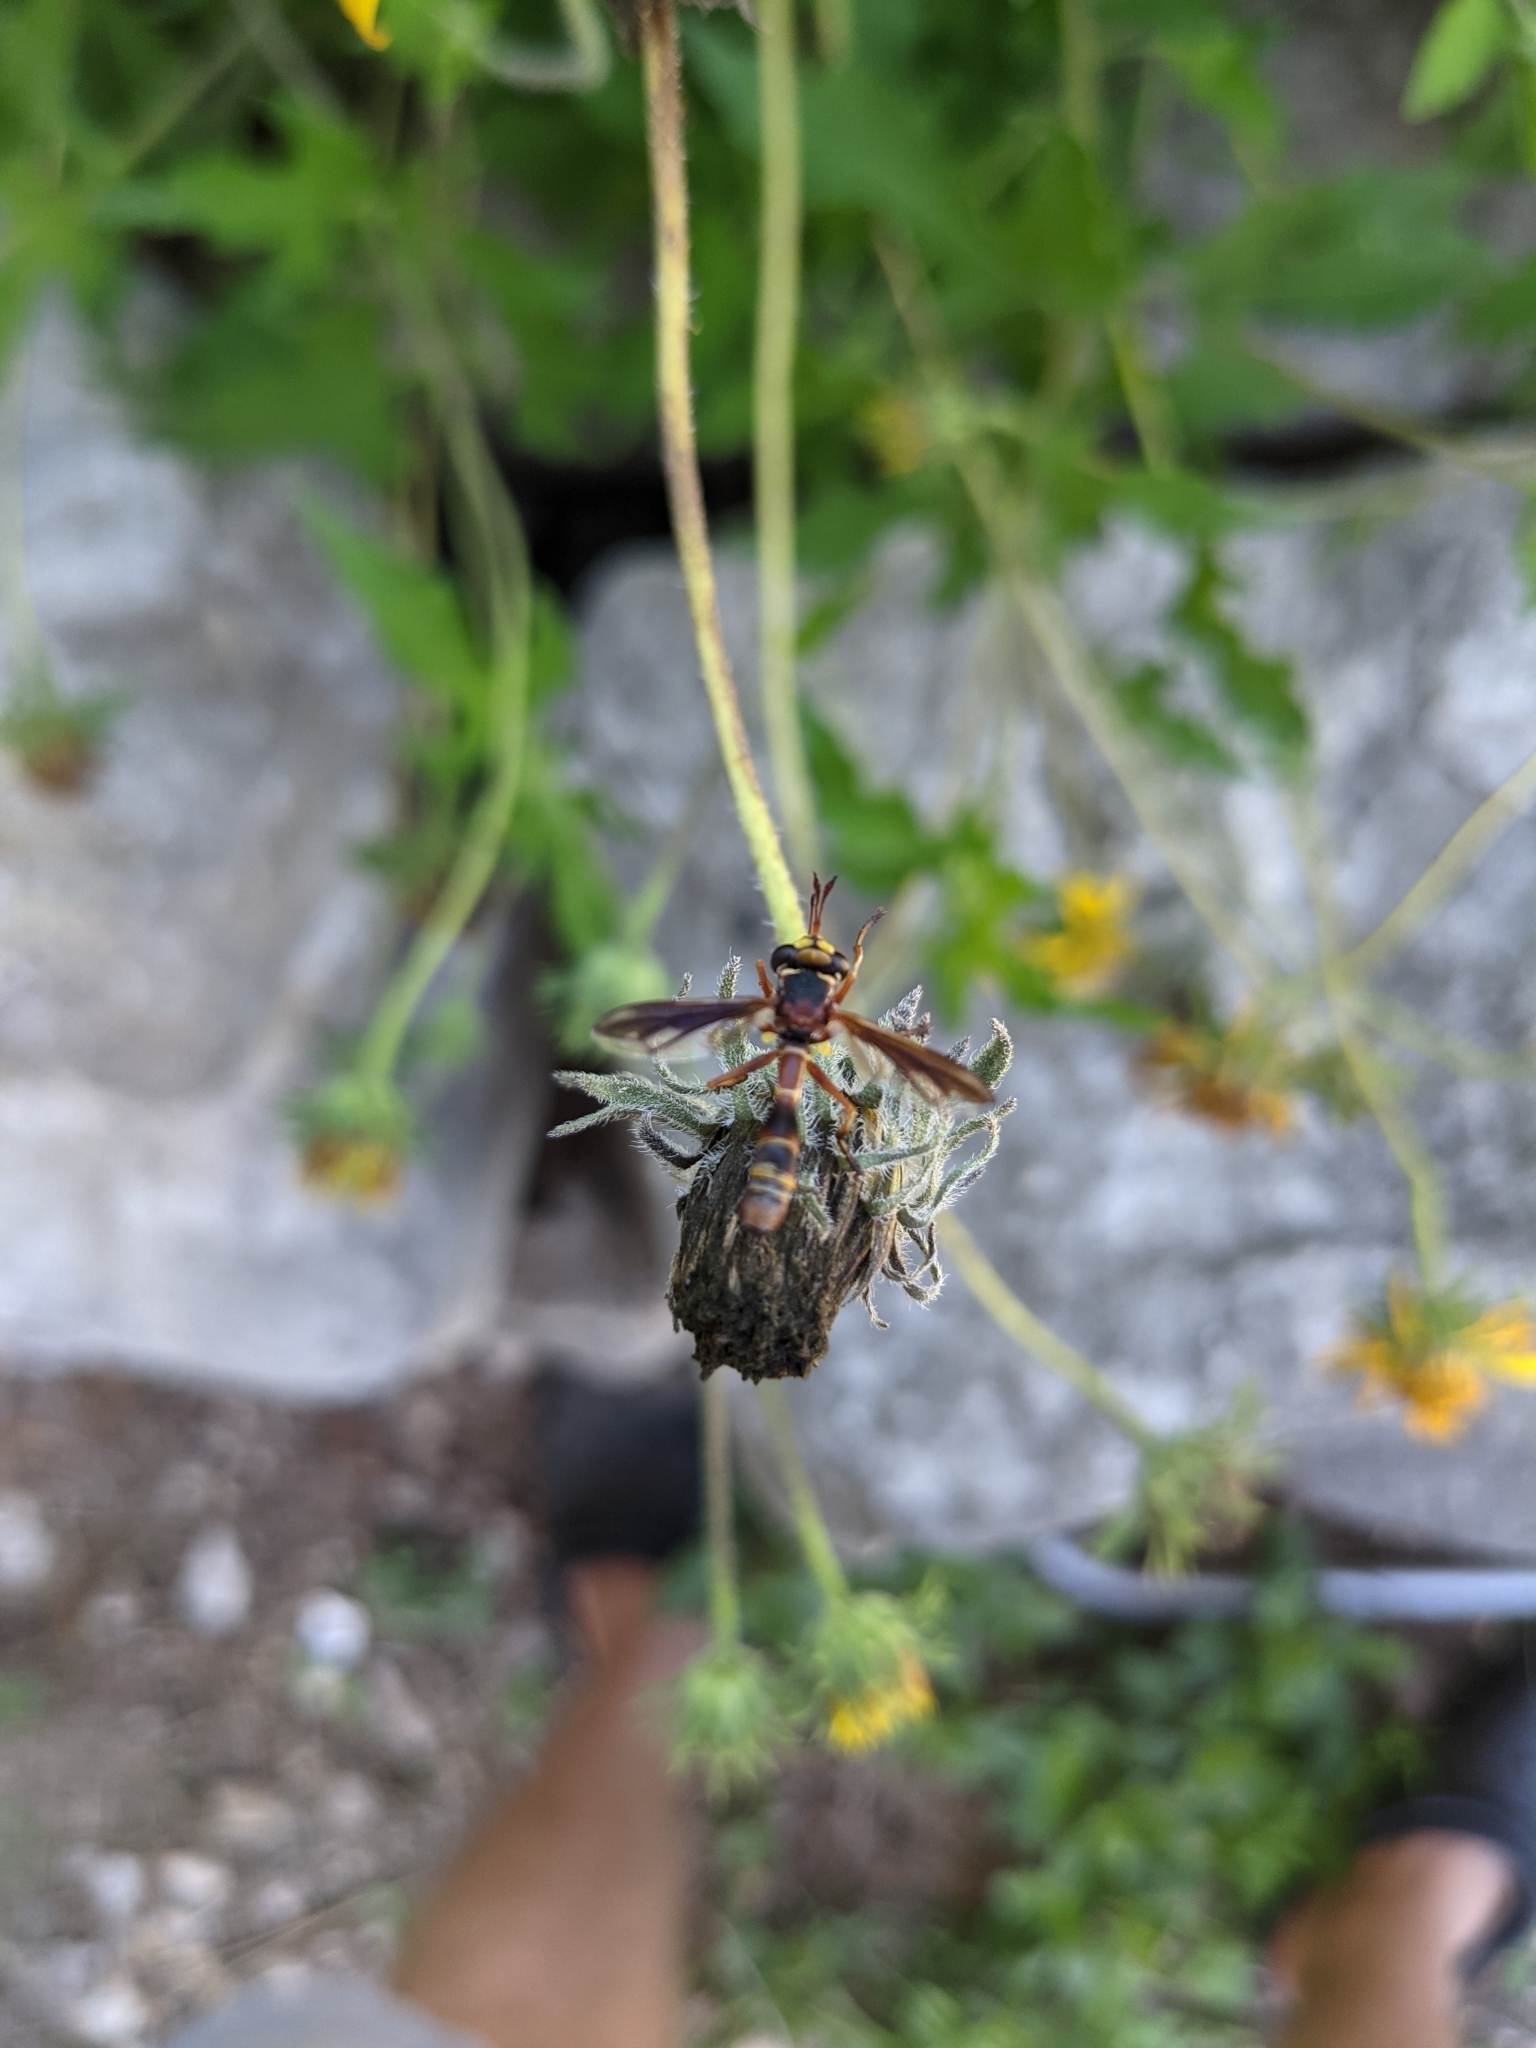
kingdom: Animalia
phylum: Arthropoda
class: Insecta
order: Diptera
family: Conopidae
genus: Physocephala
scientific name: Physocephala texana
